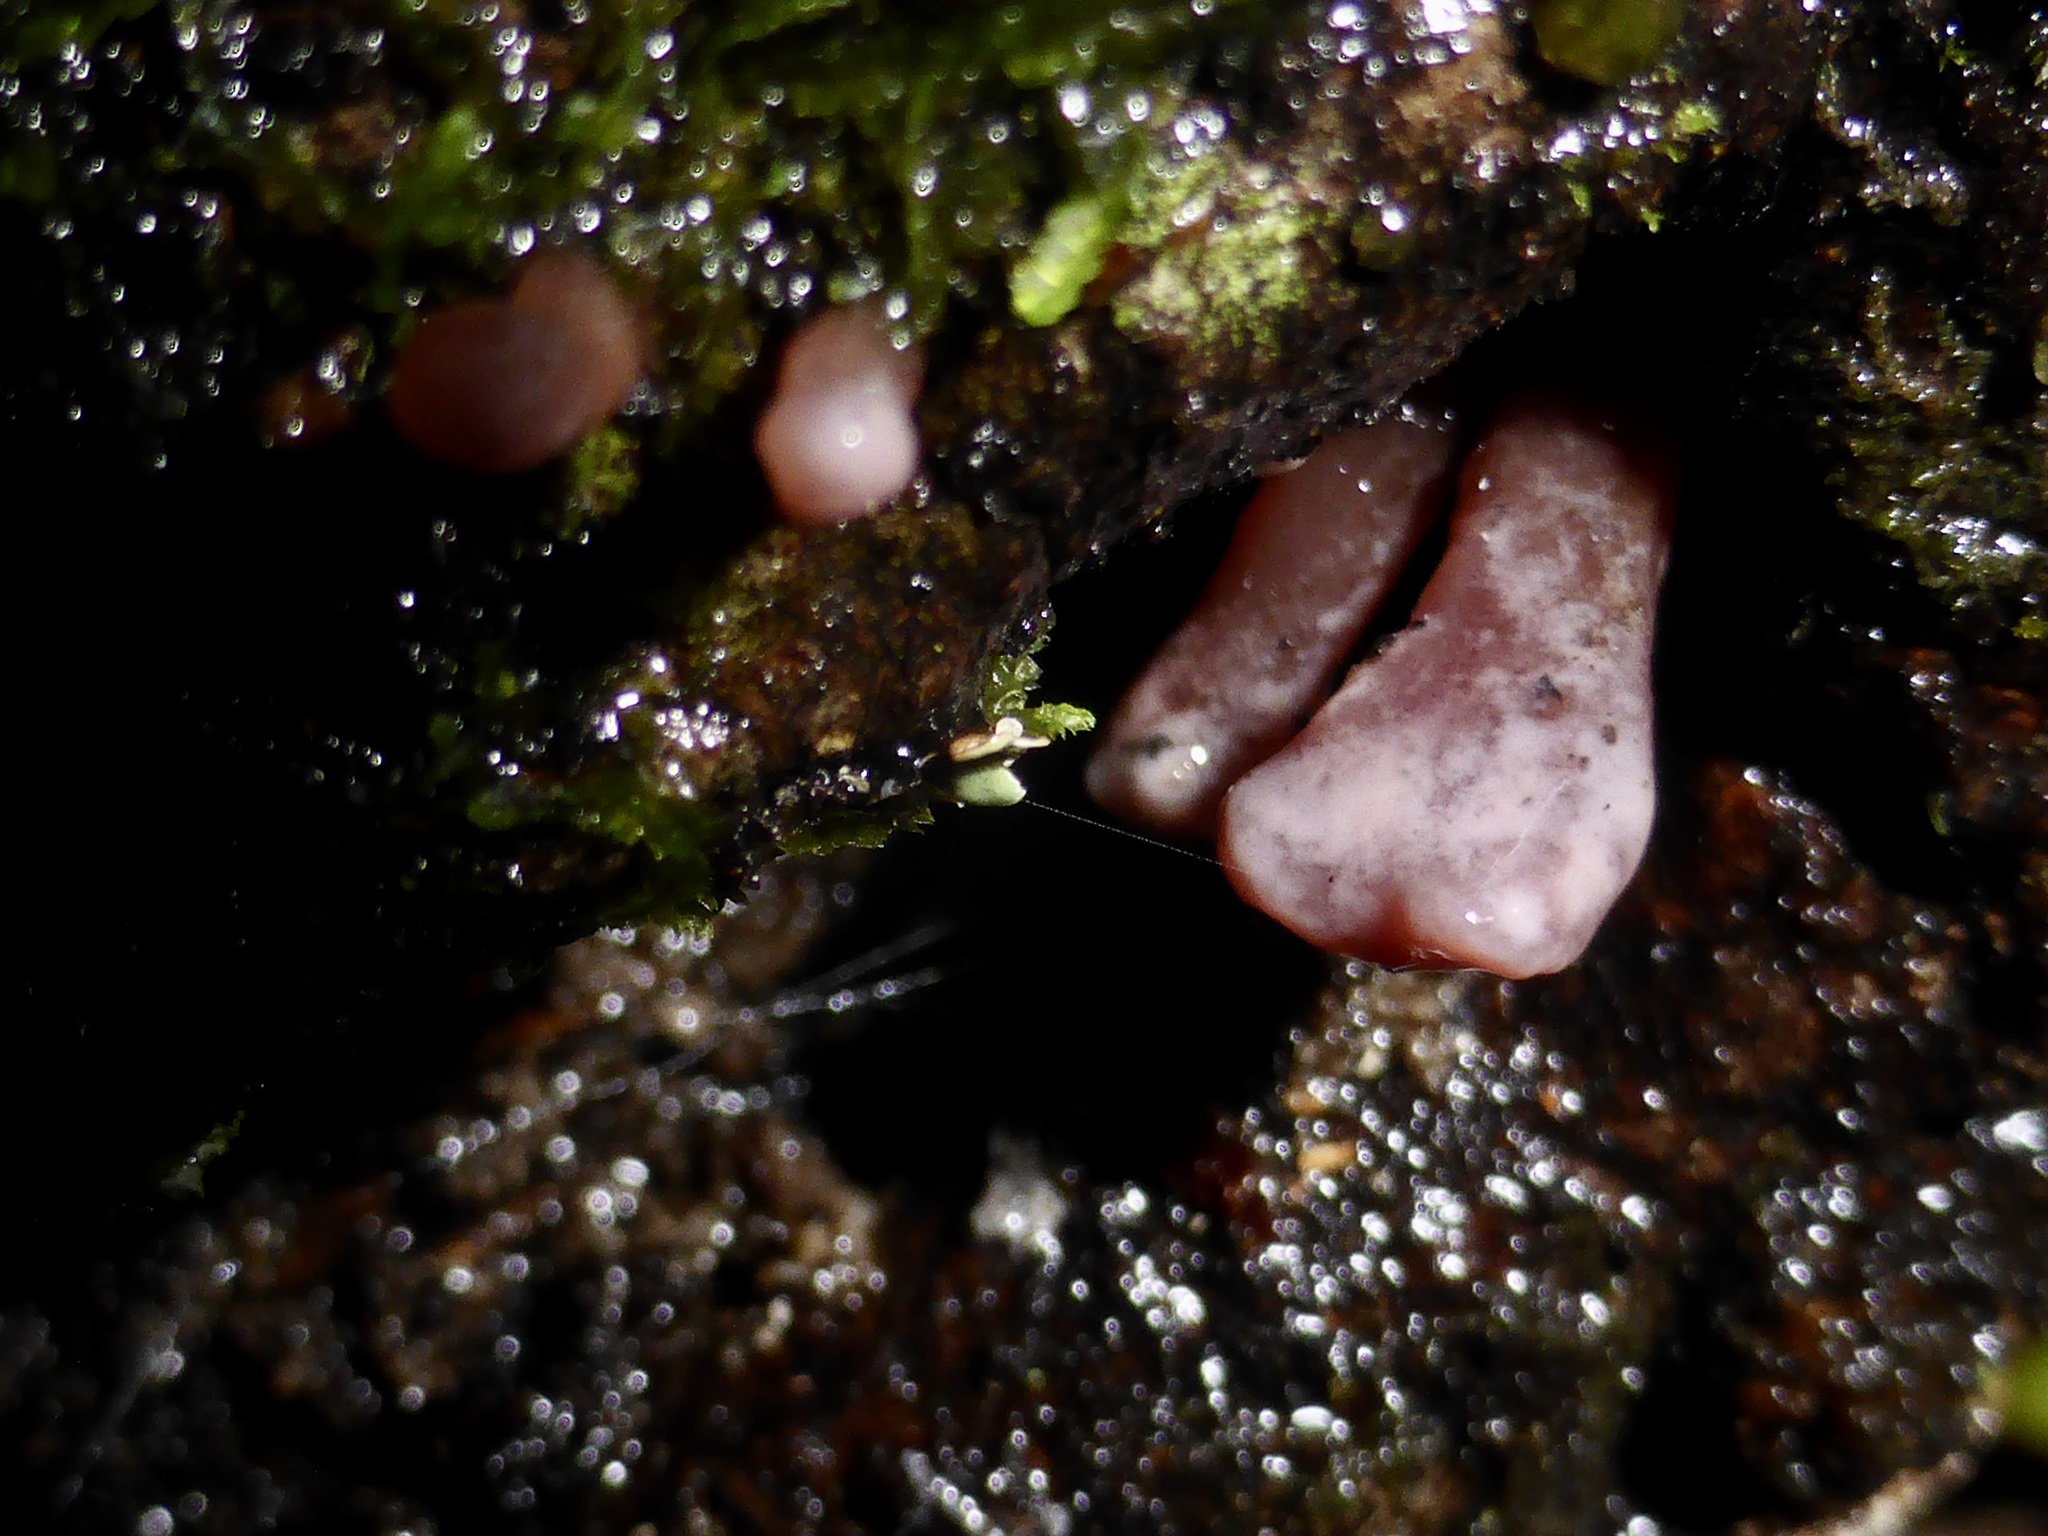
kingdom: Fungi
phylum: Ascomycota
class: Leotiomycetes
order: Helotiales
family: Gelatinodiscaceae
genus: Ascocoryne
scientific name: Ascocoryne sarcoides
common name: Purple jellydisc
